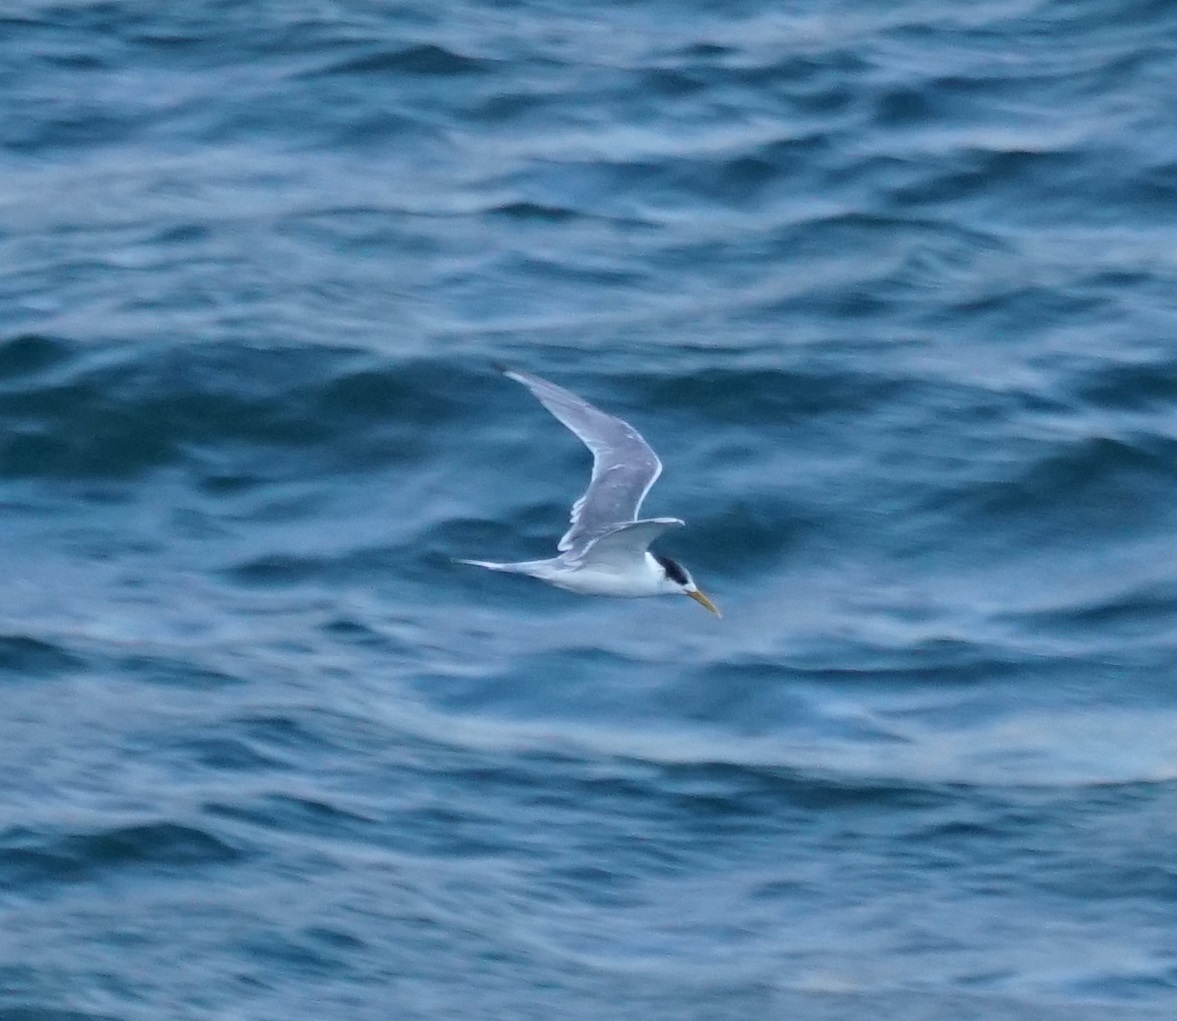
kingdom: Animalia
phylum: Chordata
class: Aves
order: Charadriiformes
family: Laridae
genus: Thalasseus
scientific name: Thalasseus bergii
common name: Greater crested tern
